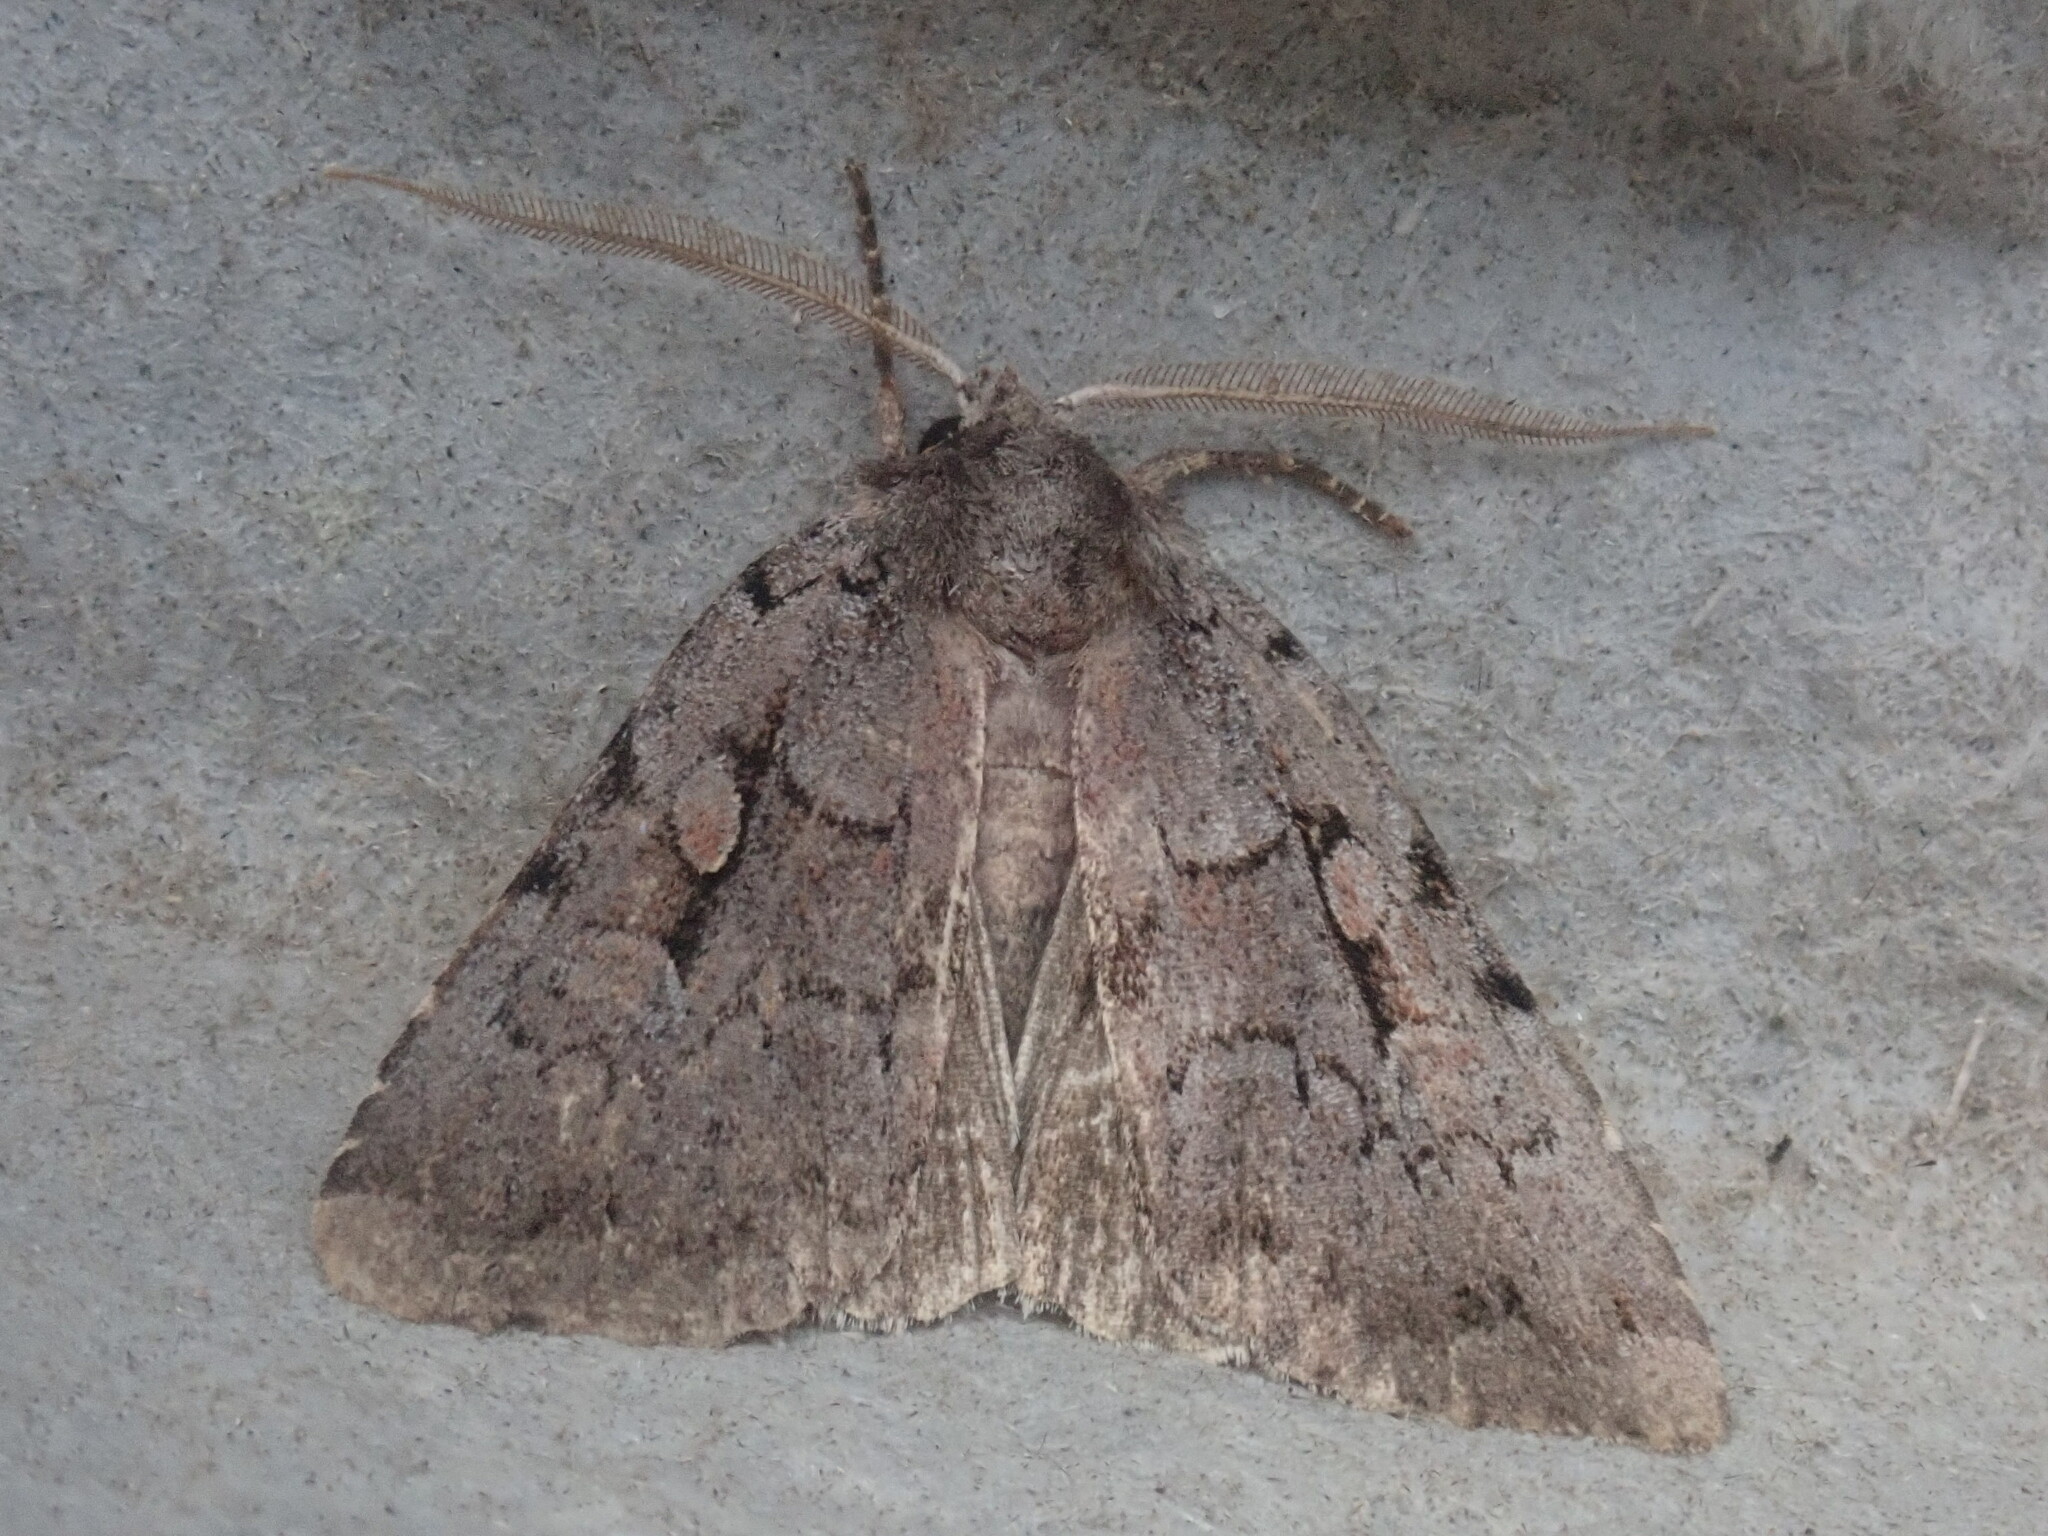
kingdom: Animalia
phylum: Arthropoda
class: Insecta
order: Lepidoptera
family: Noctuidae
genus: Xestia
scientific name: Xestia badicollis
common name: Northern variable dart
